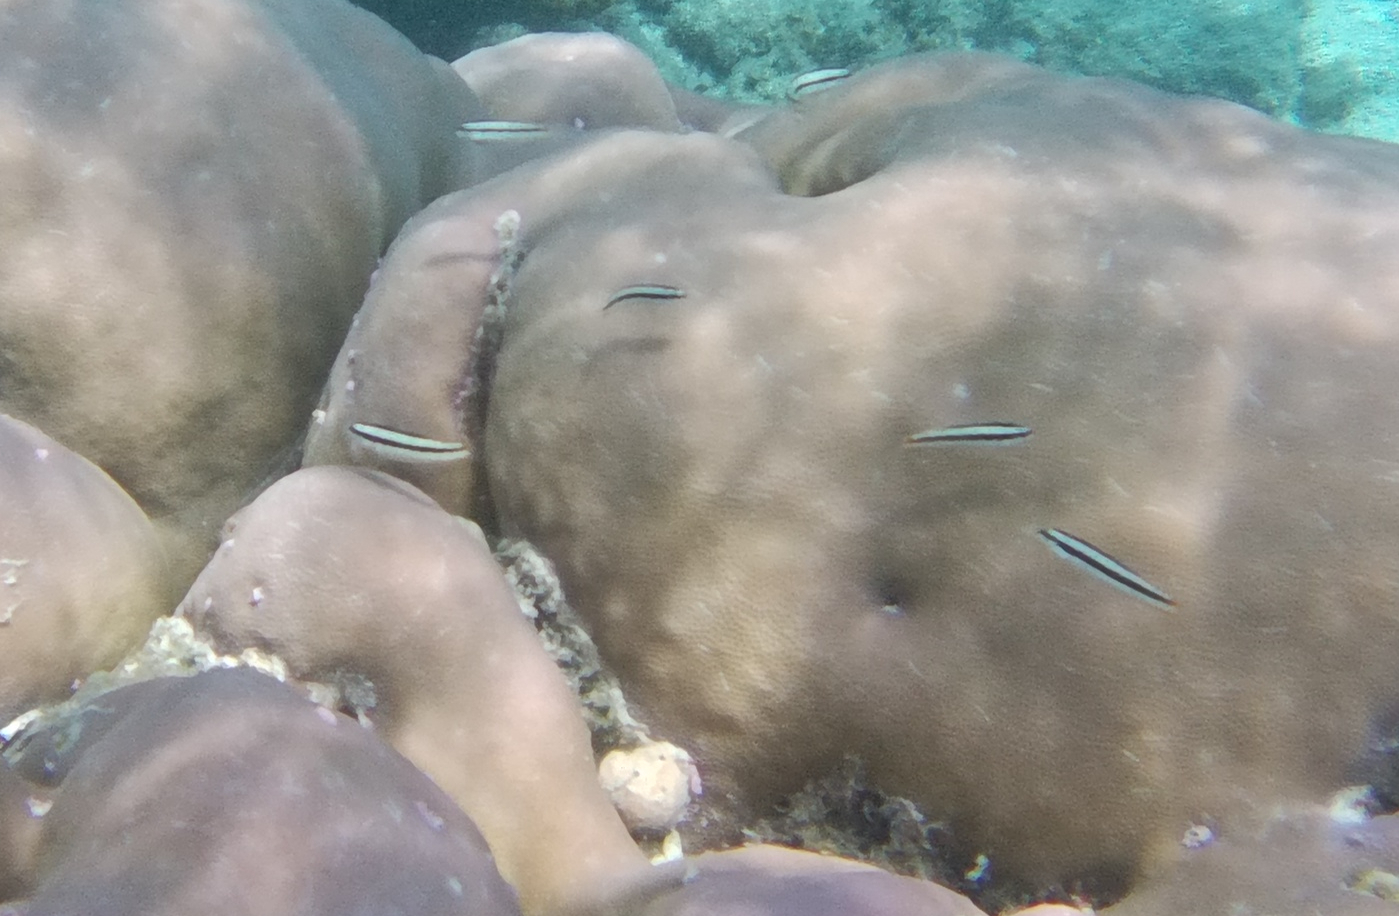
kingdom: Animalia
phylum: Chordata
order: Perciformes
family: Labridae
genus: Thalassoma
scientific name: Thalassoma amblycephalum
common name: Bluehead wrasse
